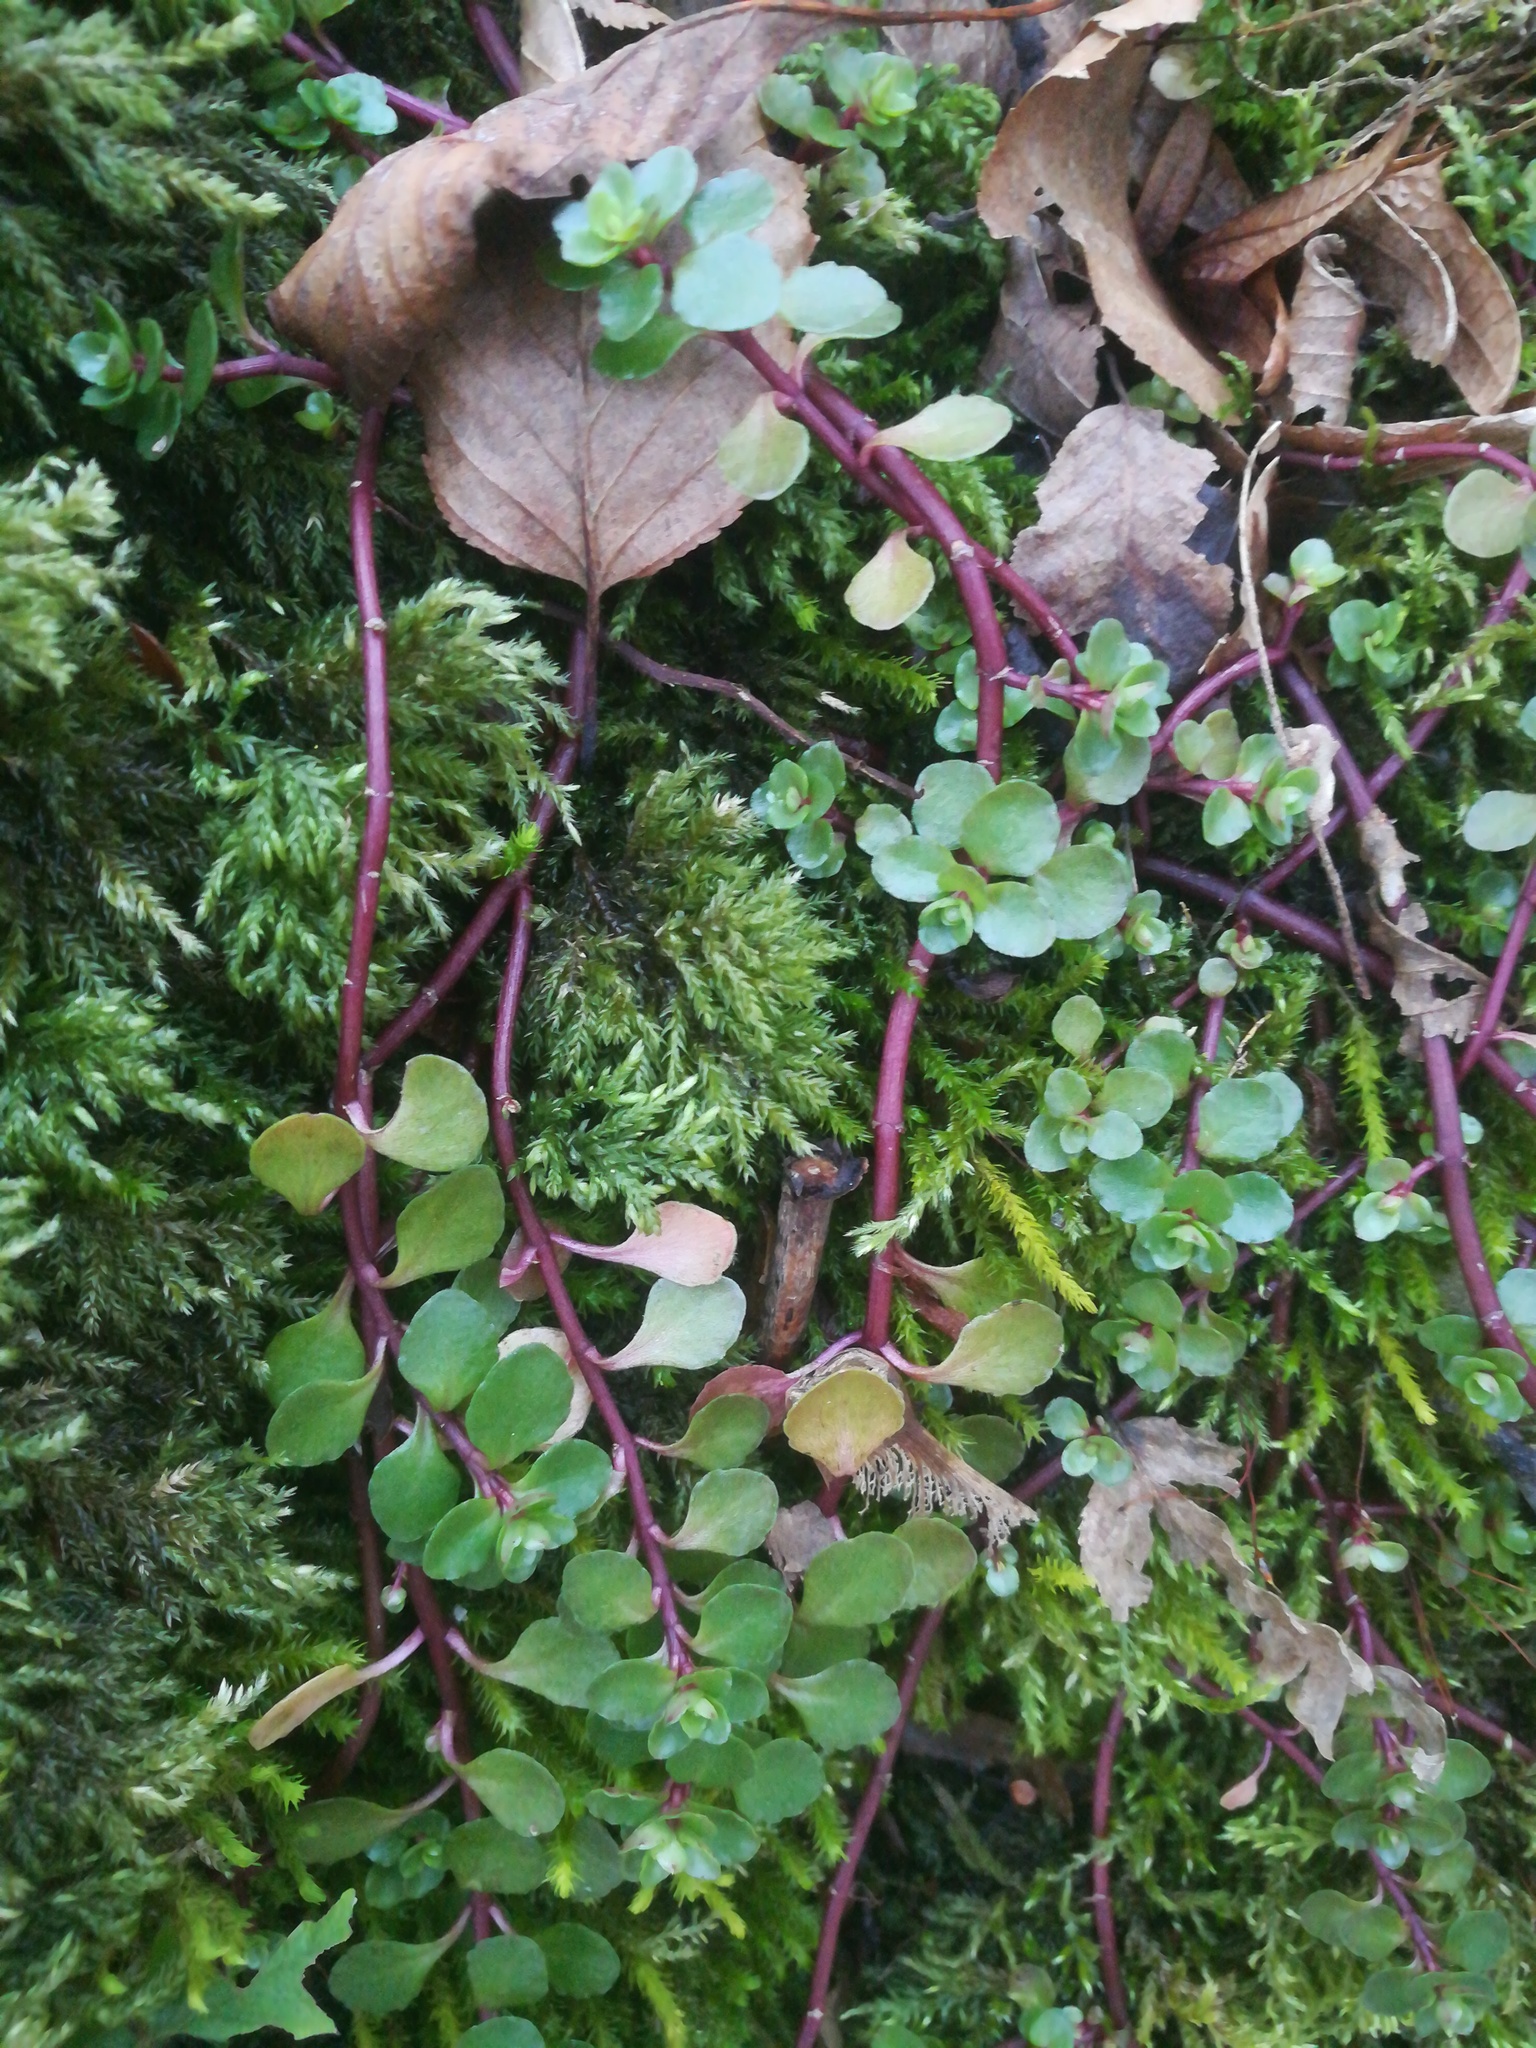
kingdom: Plantae
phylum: Tracheophyta
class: Magnoliopsida
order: Saxifragales
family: Crassulaceae
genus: Phedimus
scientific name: Phedimus stolonifer
